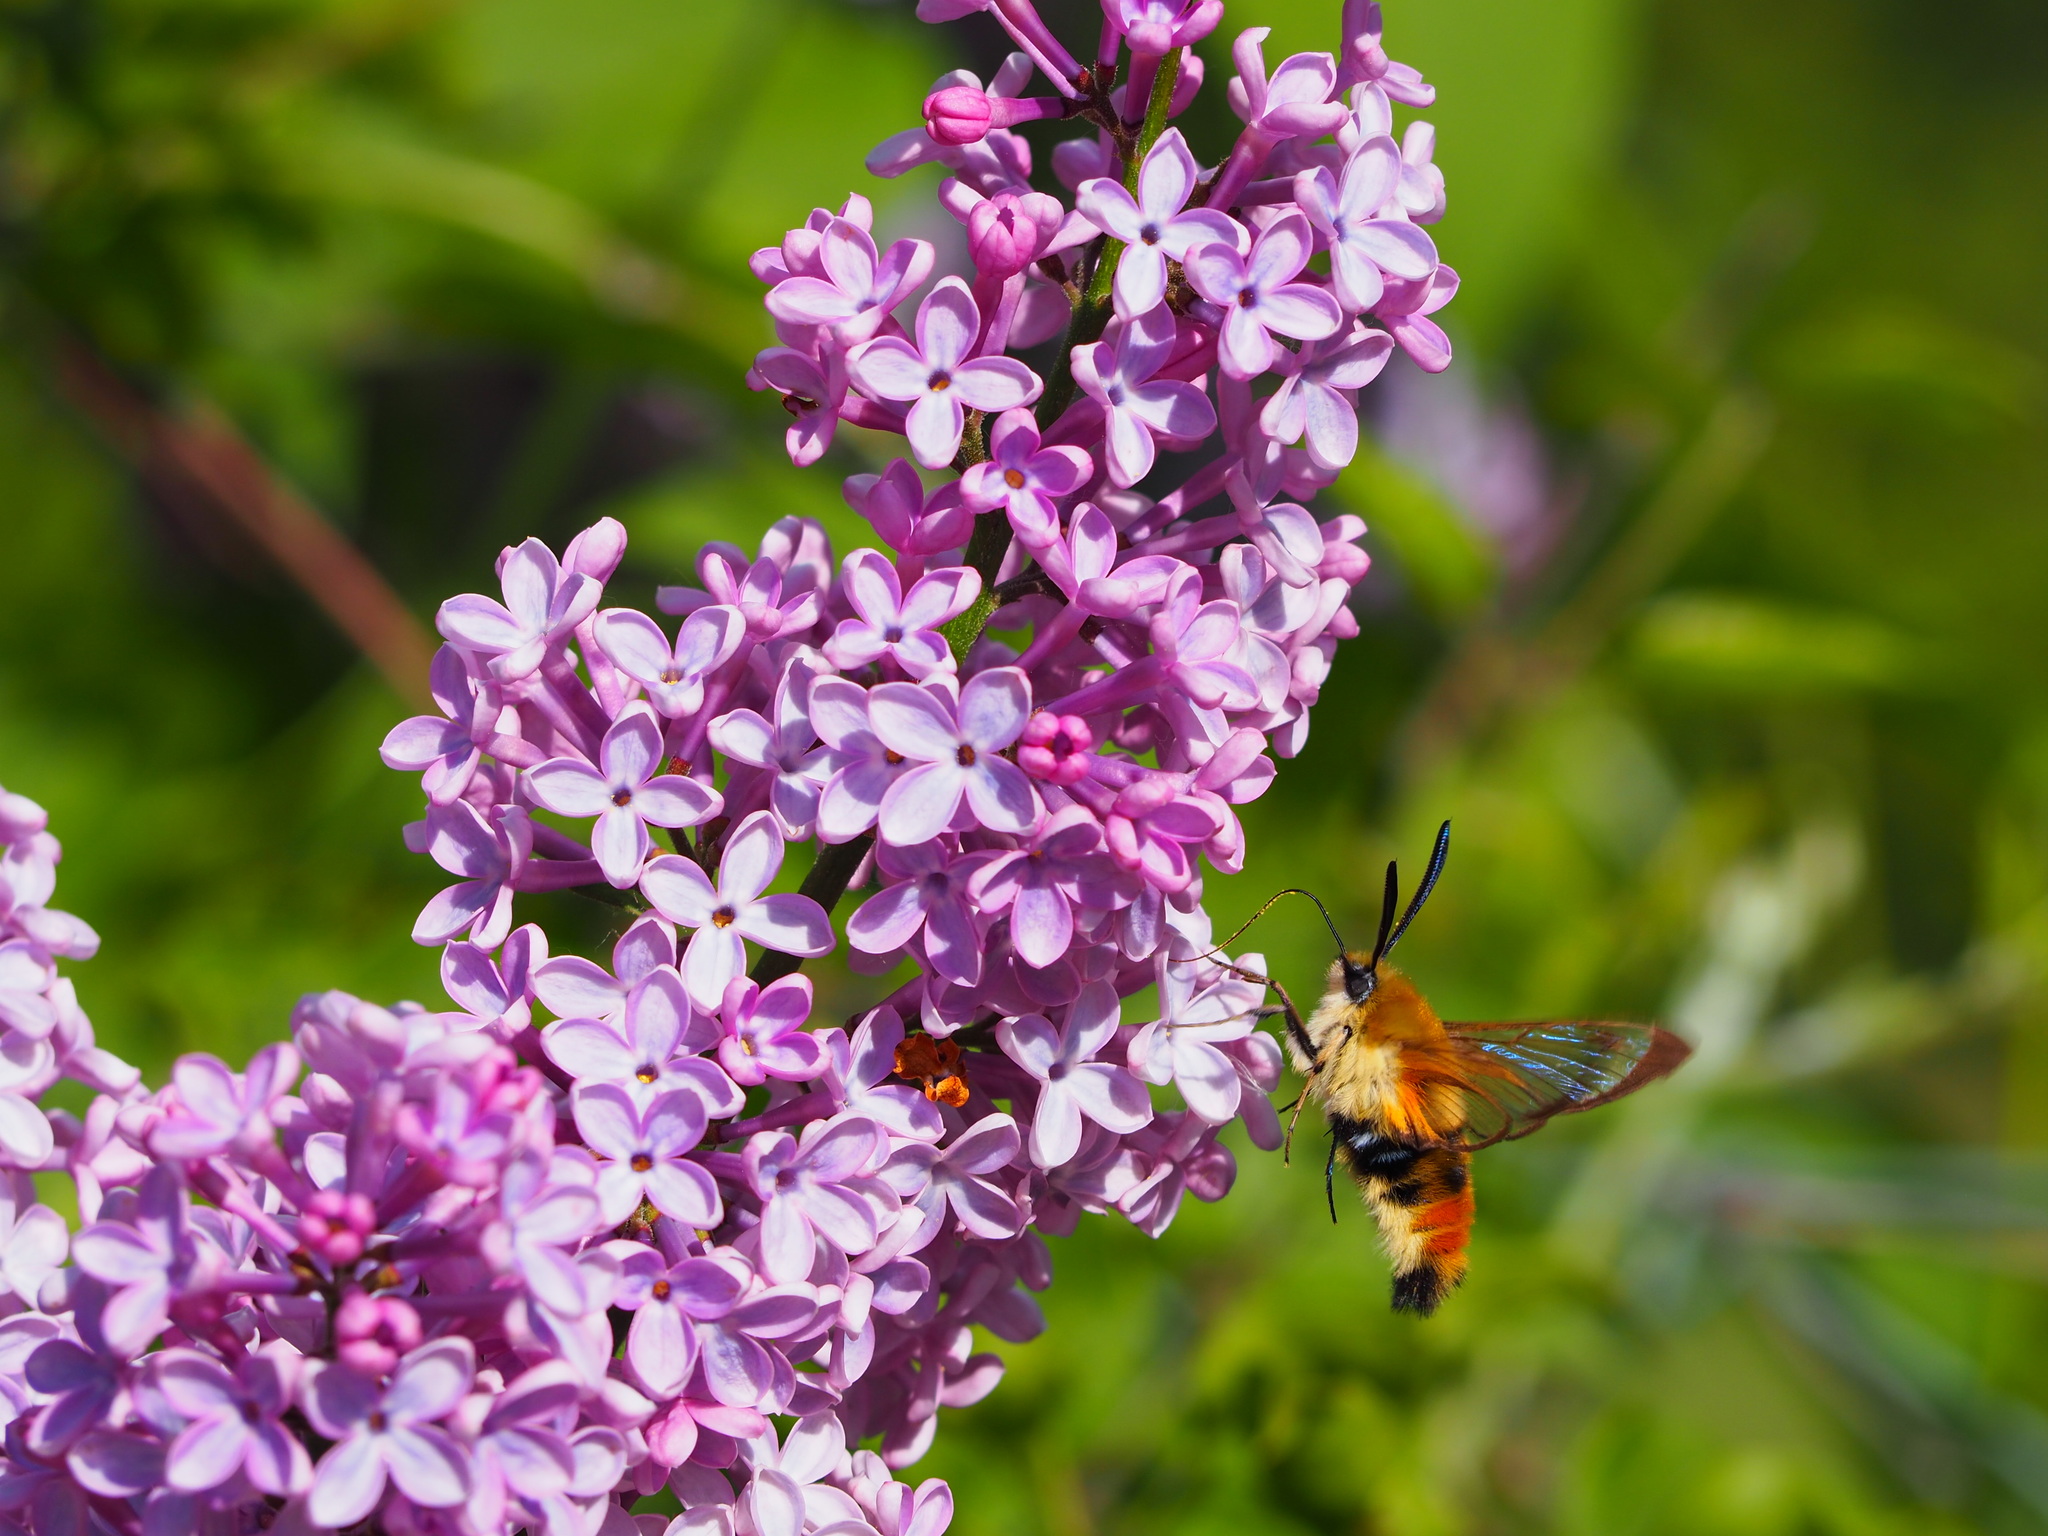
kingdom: Animalia
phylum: Arthropoda
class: Insecta
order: Lepidoptera
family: Sphingidae
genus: Hemaris
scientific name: Hemaris tityus
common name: Narrow-bordered bee hawk-moth
